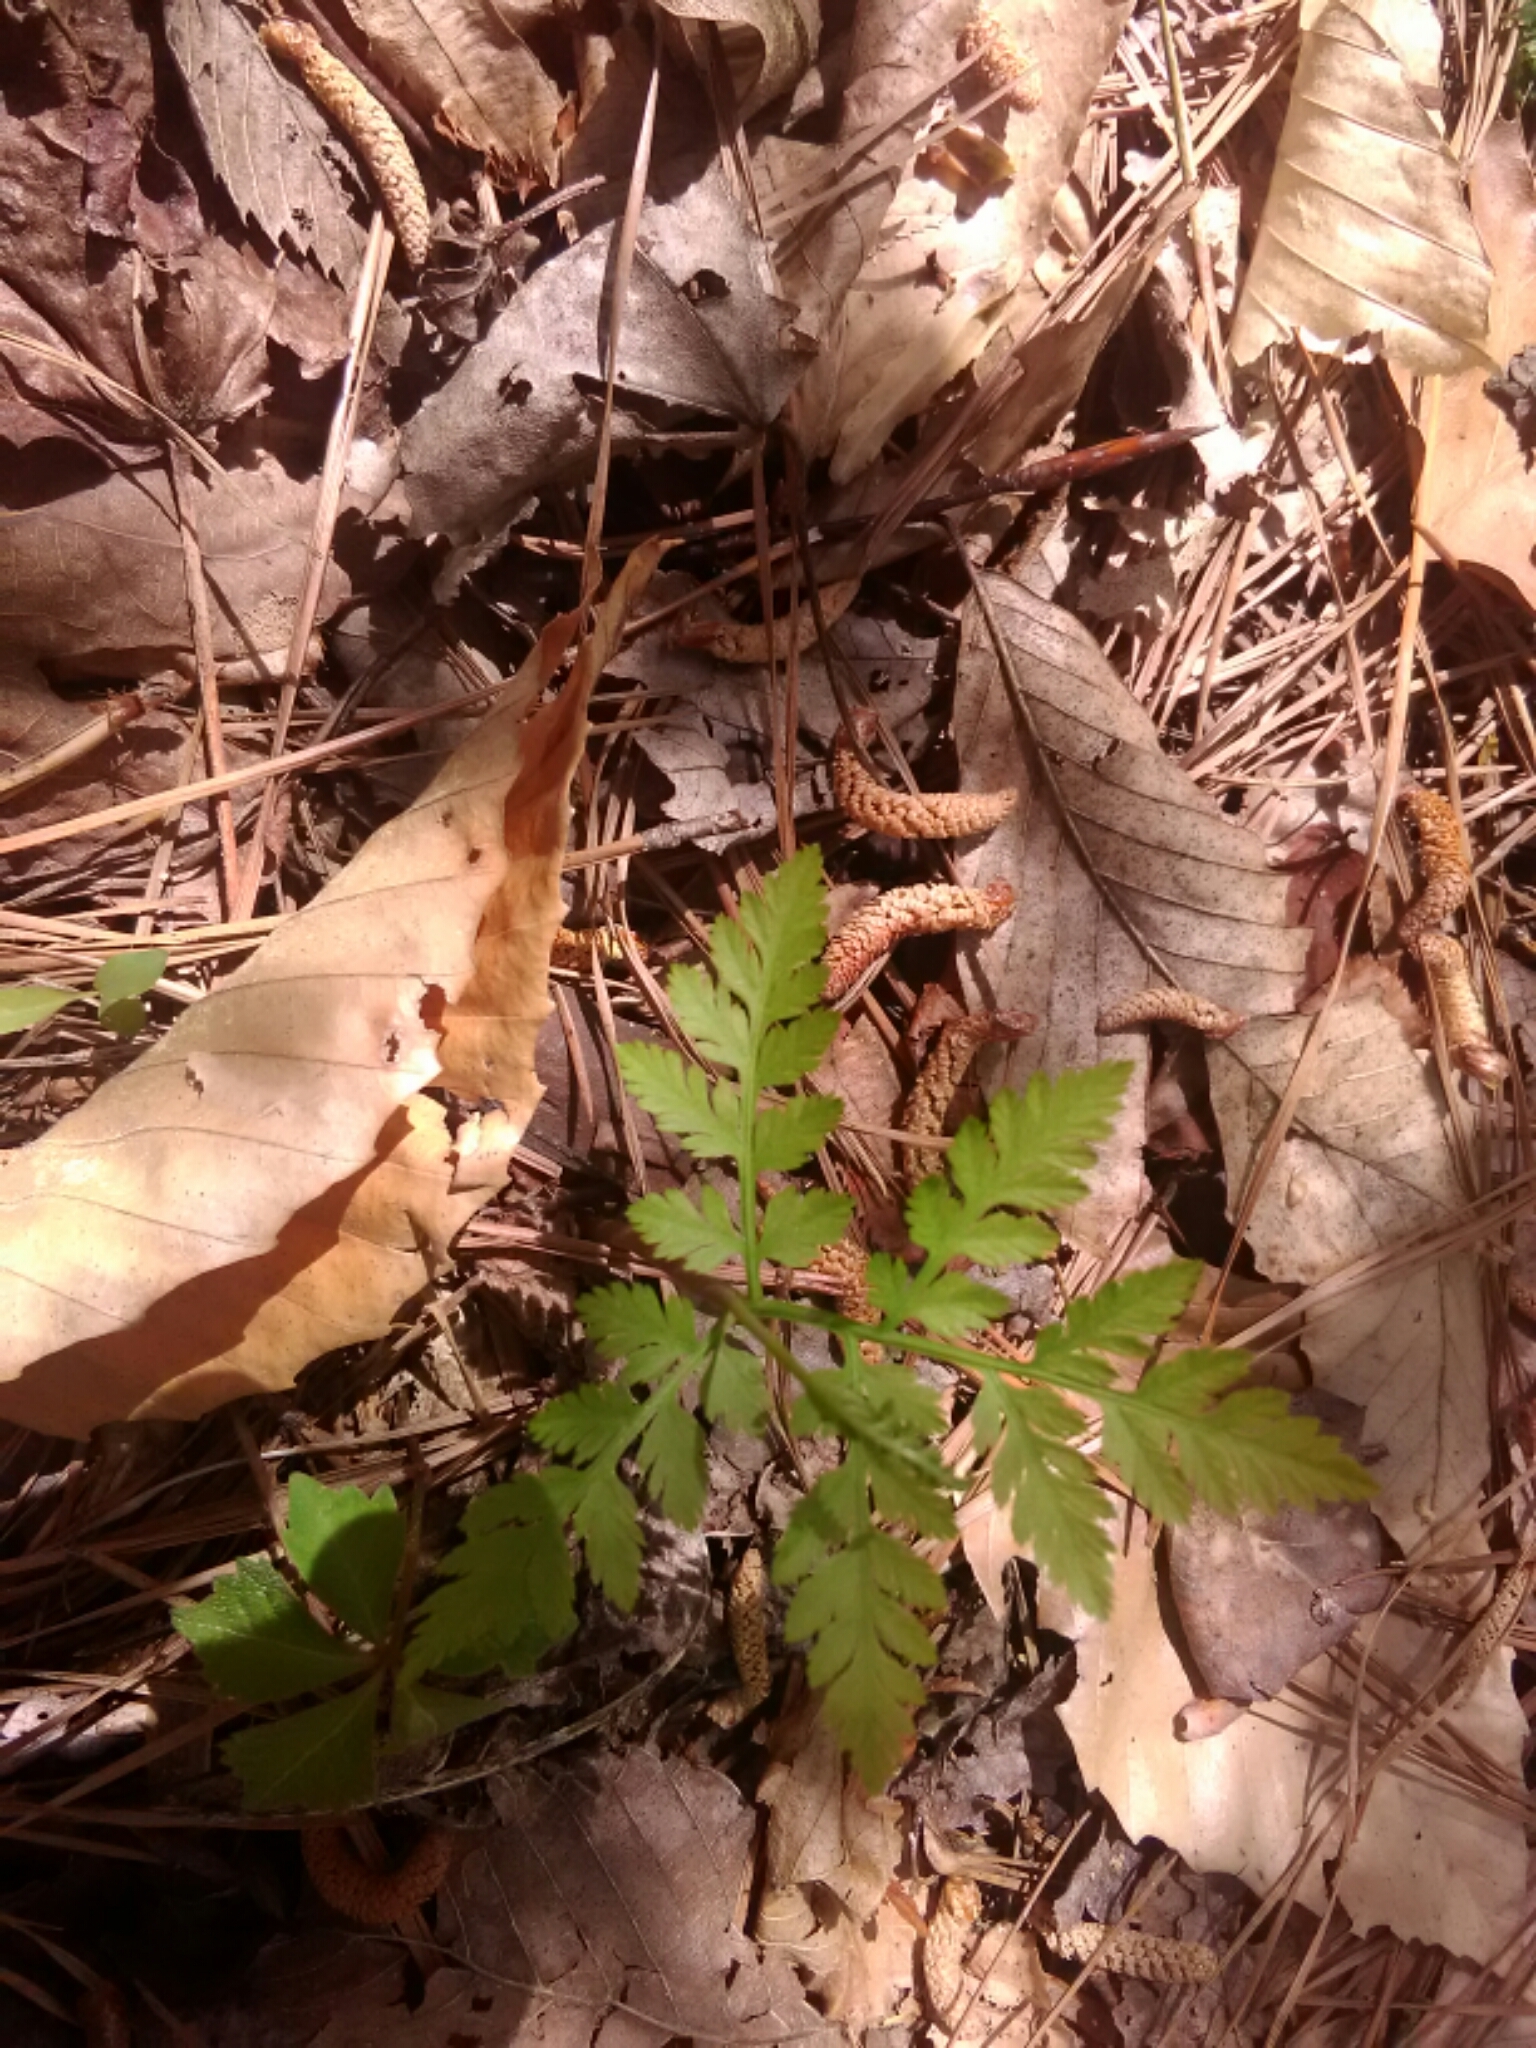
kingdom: Plantae
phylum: Tracheophyta
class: Polypodiopsida
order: Ophioglossales
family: Ophioglossaceae
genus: Botrypus
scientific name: Botrypus virginianus
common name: Common grapefern
